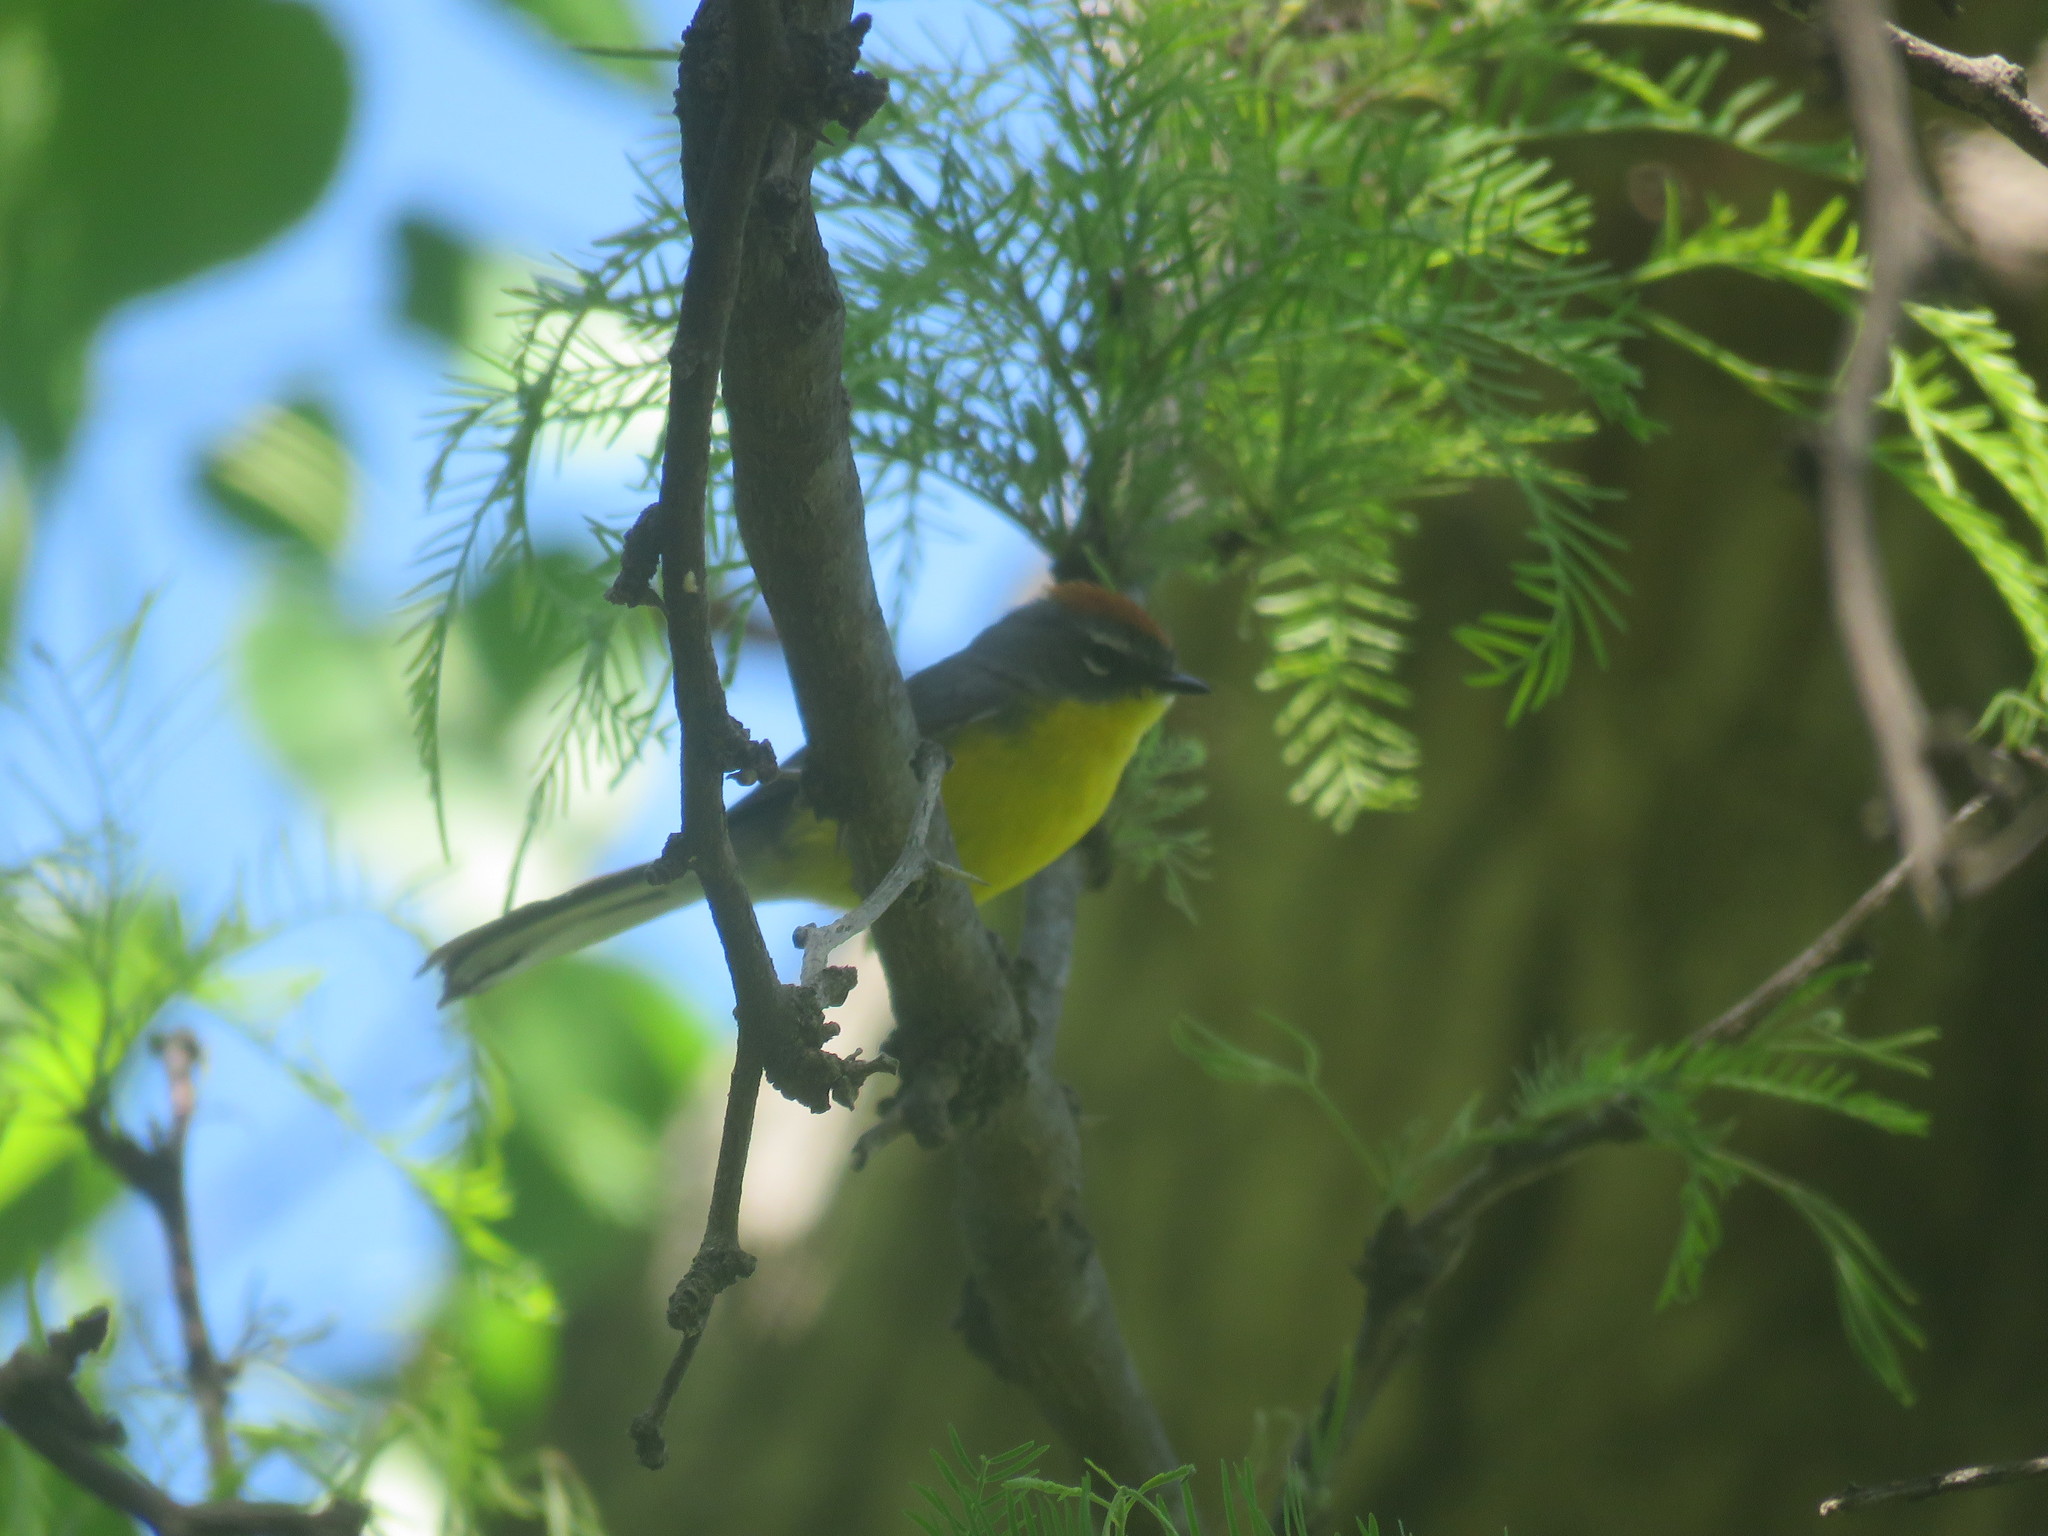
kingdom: Animalia
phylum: Chordata
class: Aves
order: Passeriformes
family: Parulidae
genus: Myioborus
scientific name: Myioborus brunniceps
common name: Brown-capped whitestart
